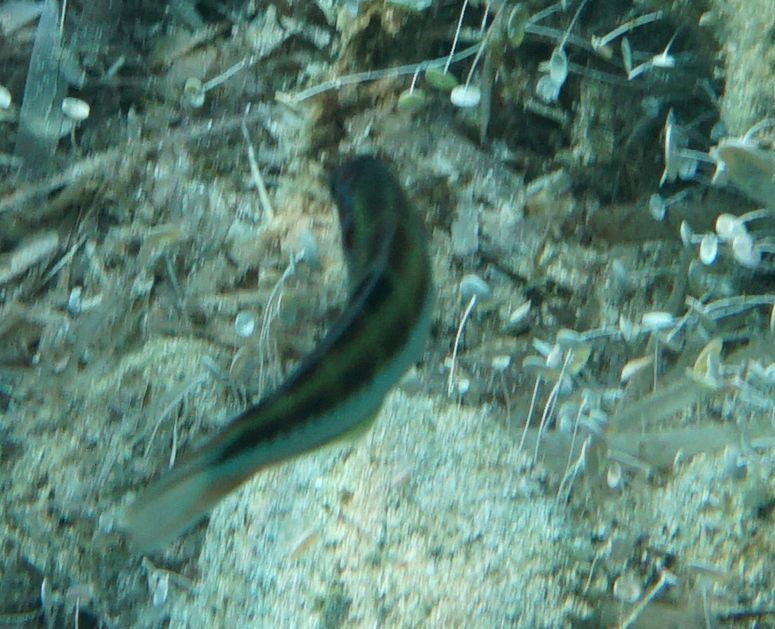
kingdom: Animalia
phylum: Chordata
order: Perciformes
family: Labridae
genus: Thalassoma
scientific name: Thalassoma pavo
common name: Ornate wrasse
